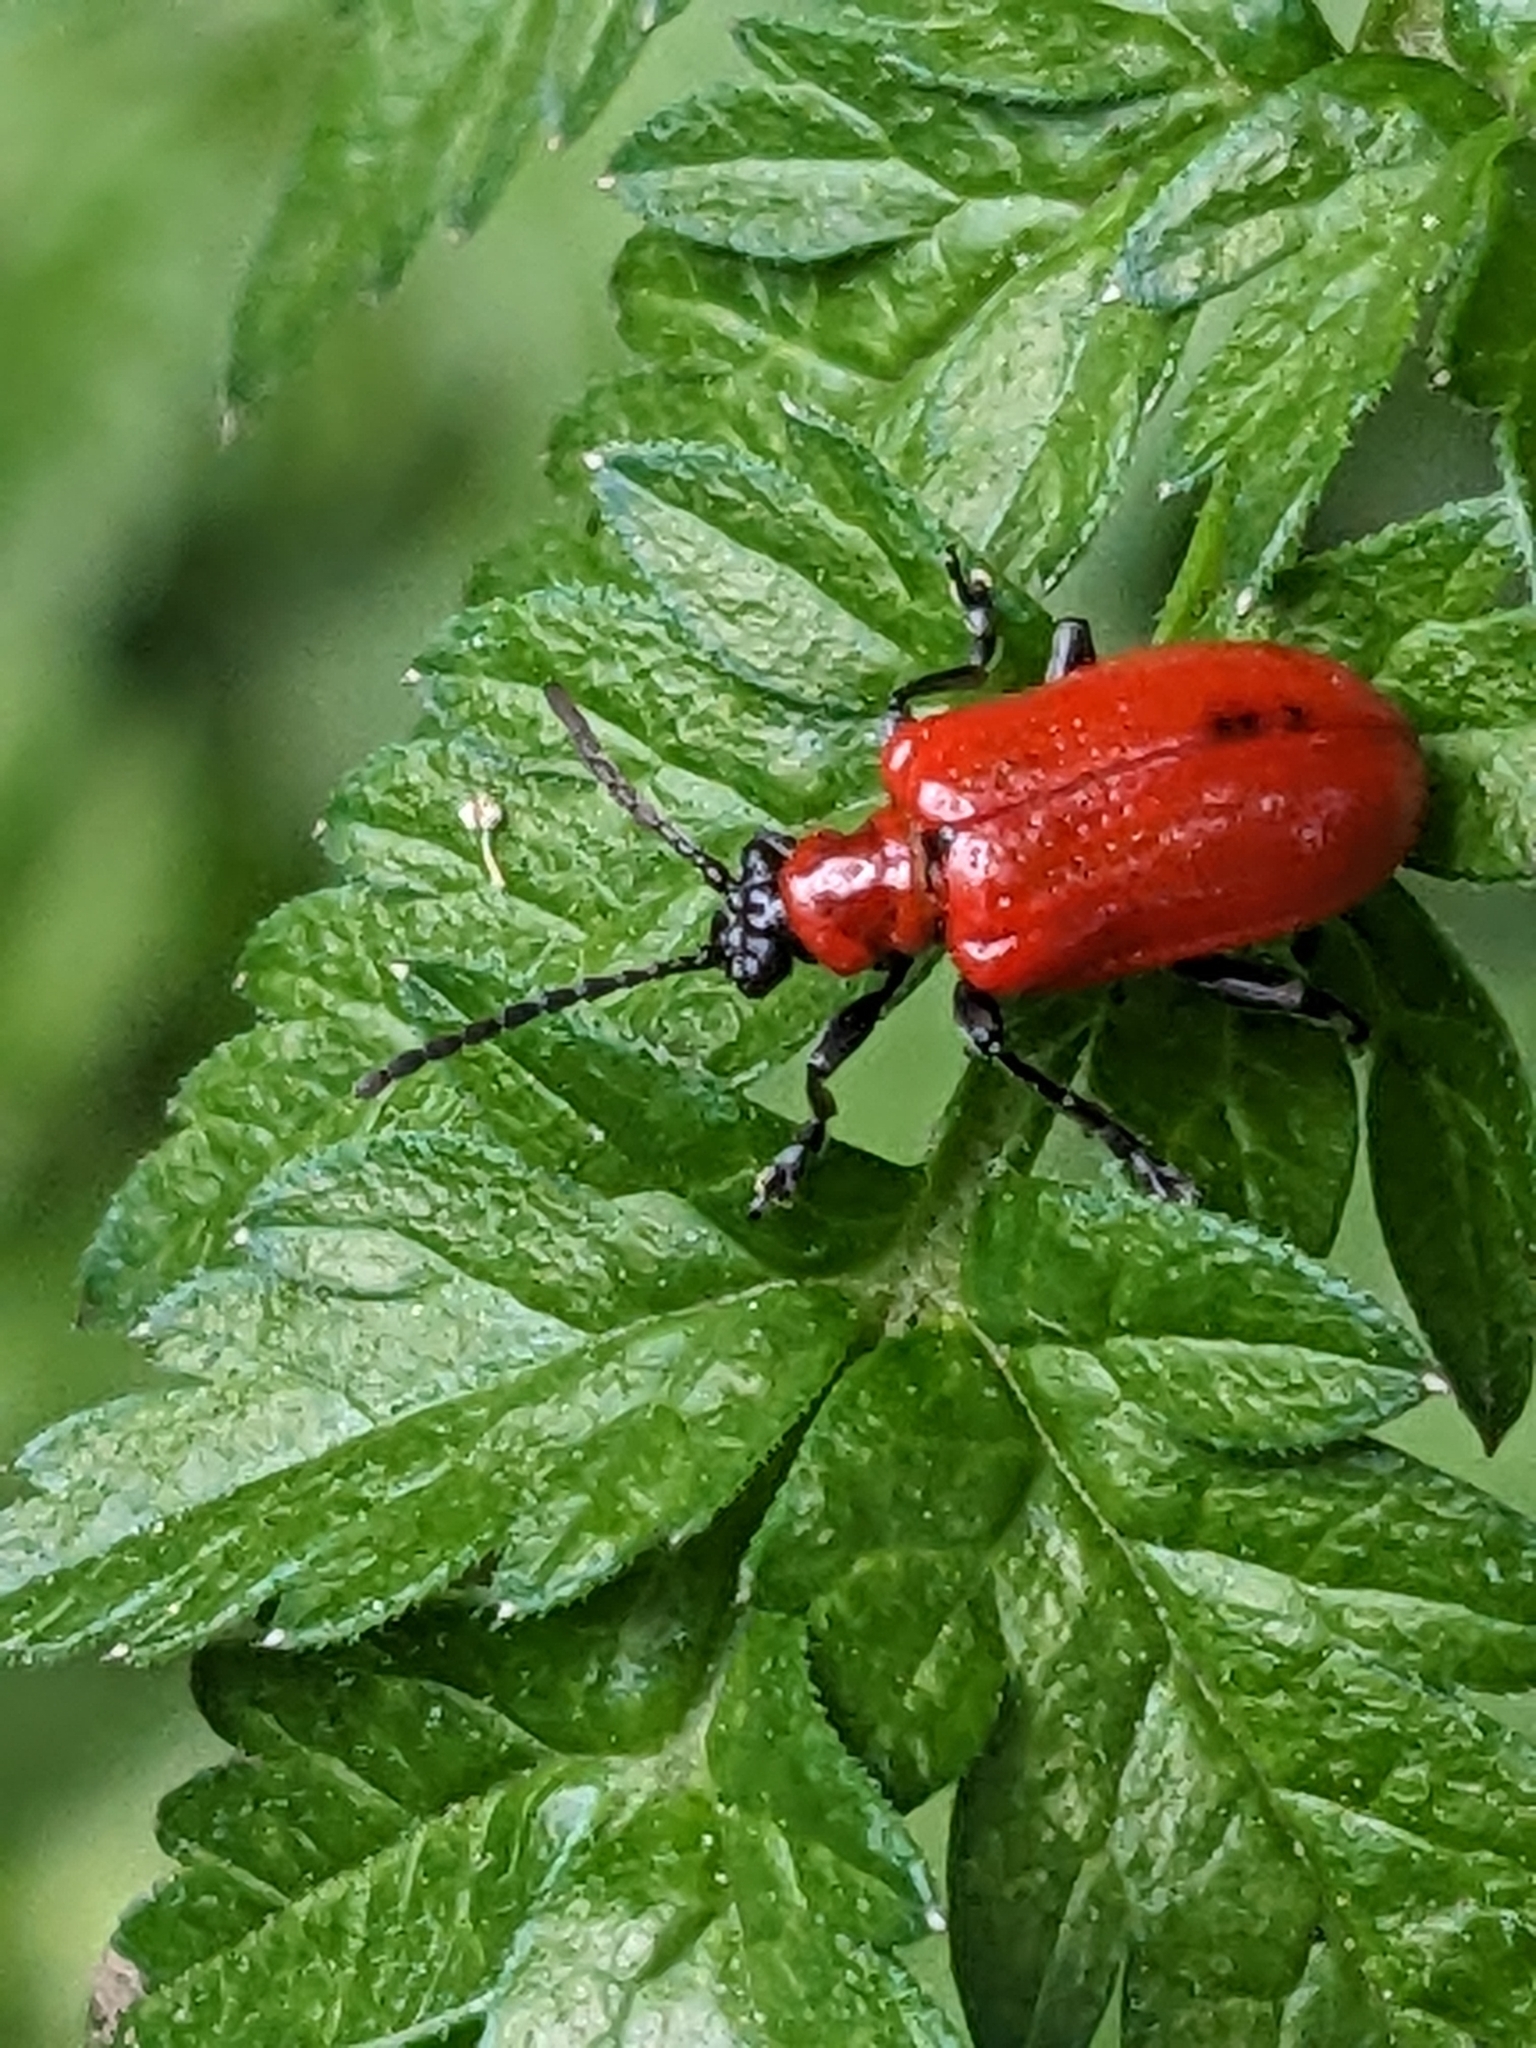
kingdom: Animalia
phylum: Arthropoda
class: Insecta
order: Coleoptera
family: Chrysomelidae
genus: Lilioceris
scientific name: Lilioceris lilii
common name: Lily beetle
